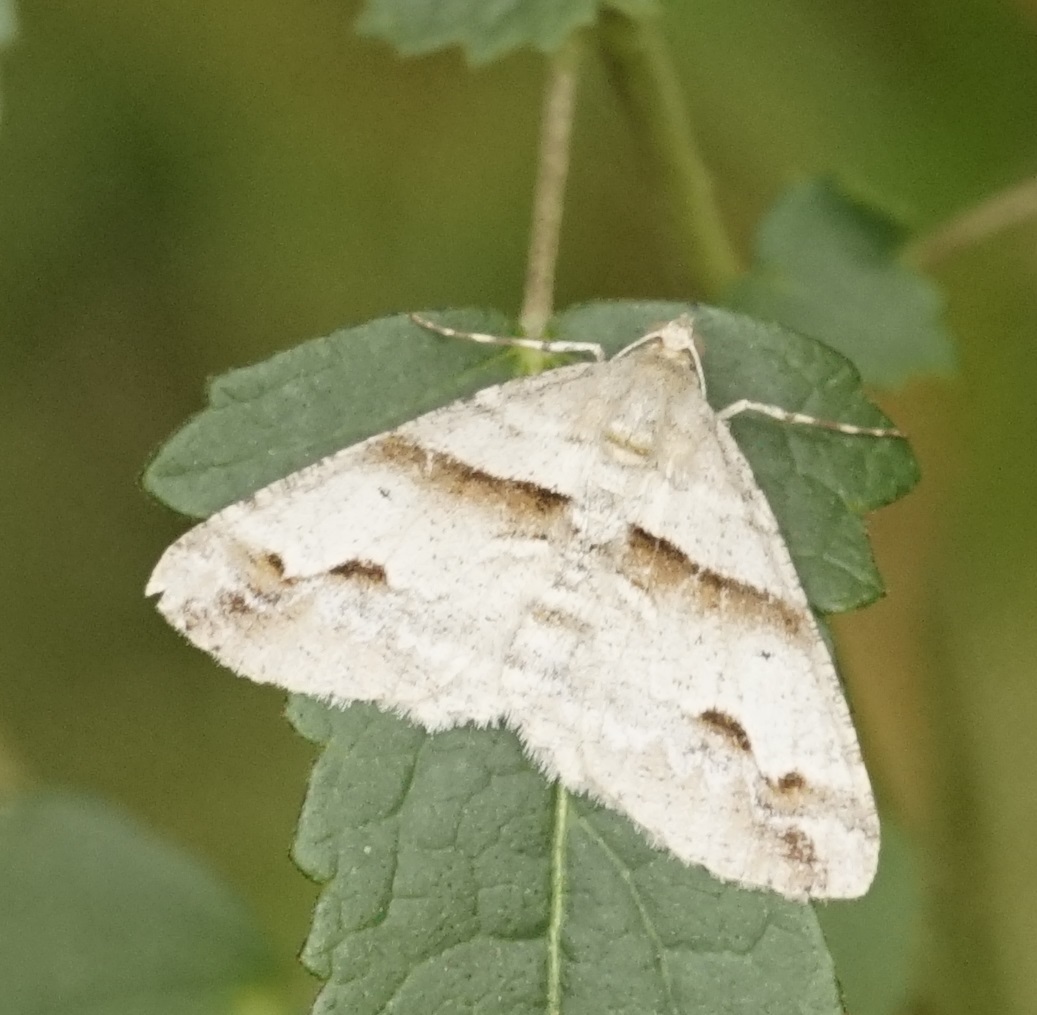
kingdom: Animalia
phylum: Arthropoda
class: Insecta
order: Lepidoptera
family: Geometridae
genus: Syneora
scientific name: Syneora hemeropa
